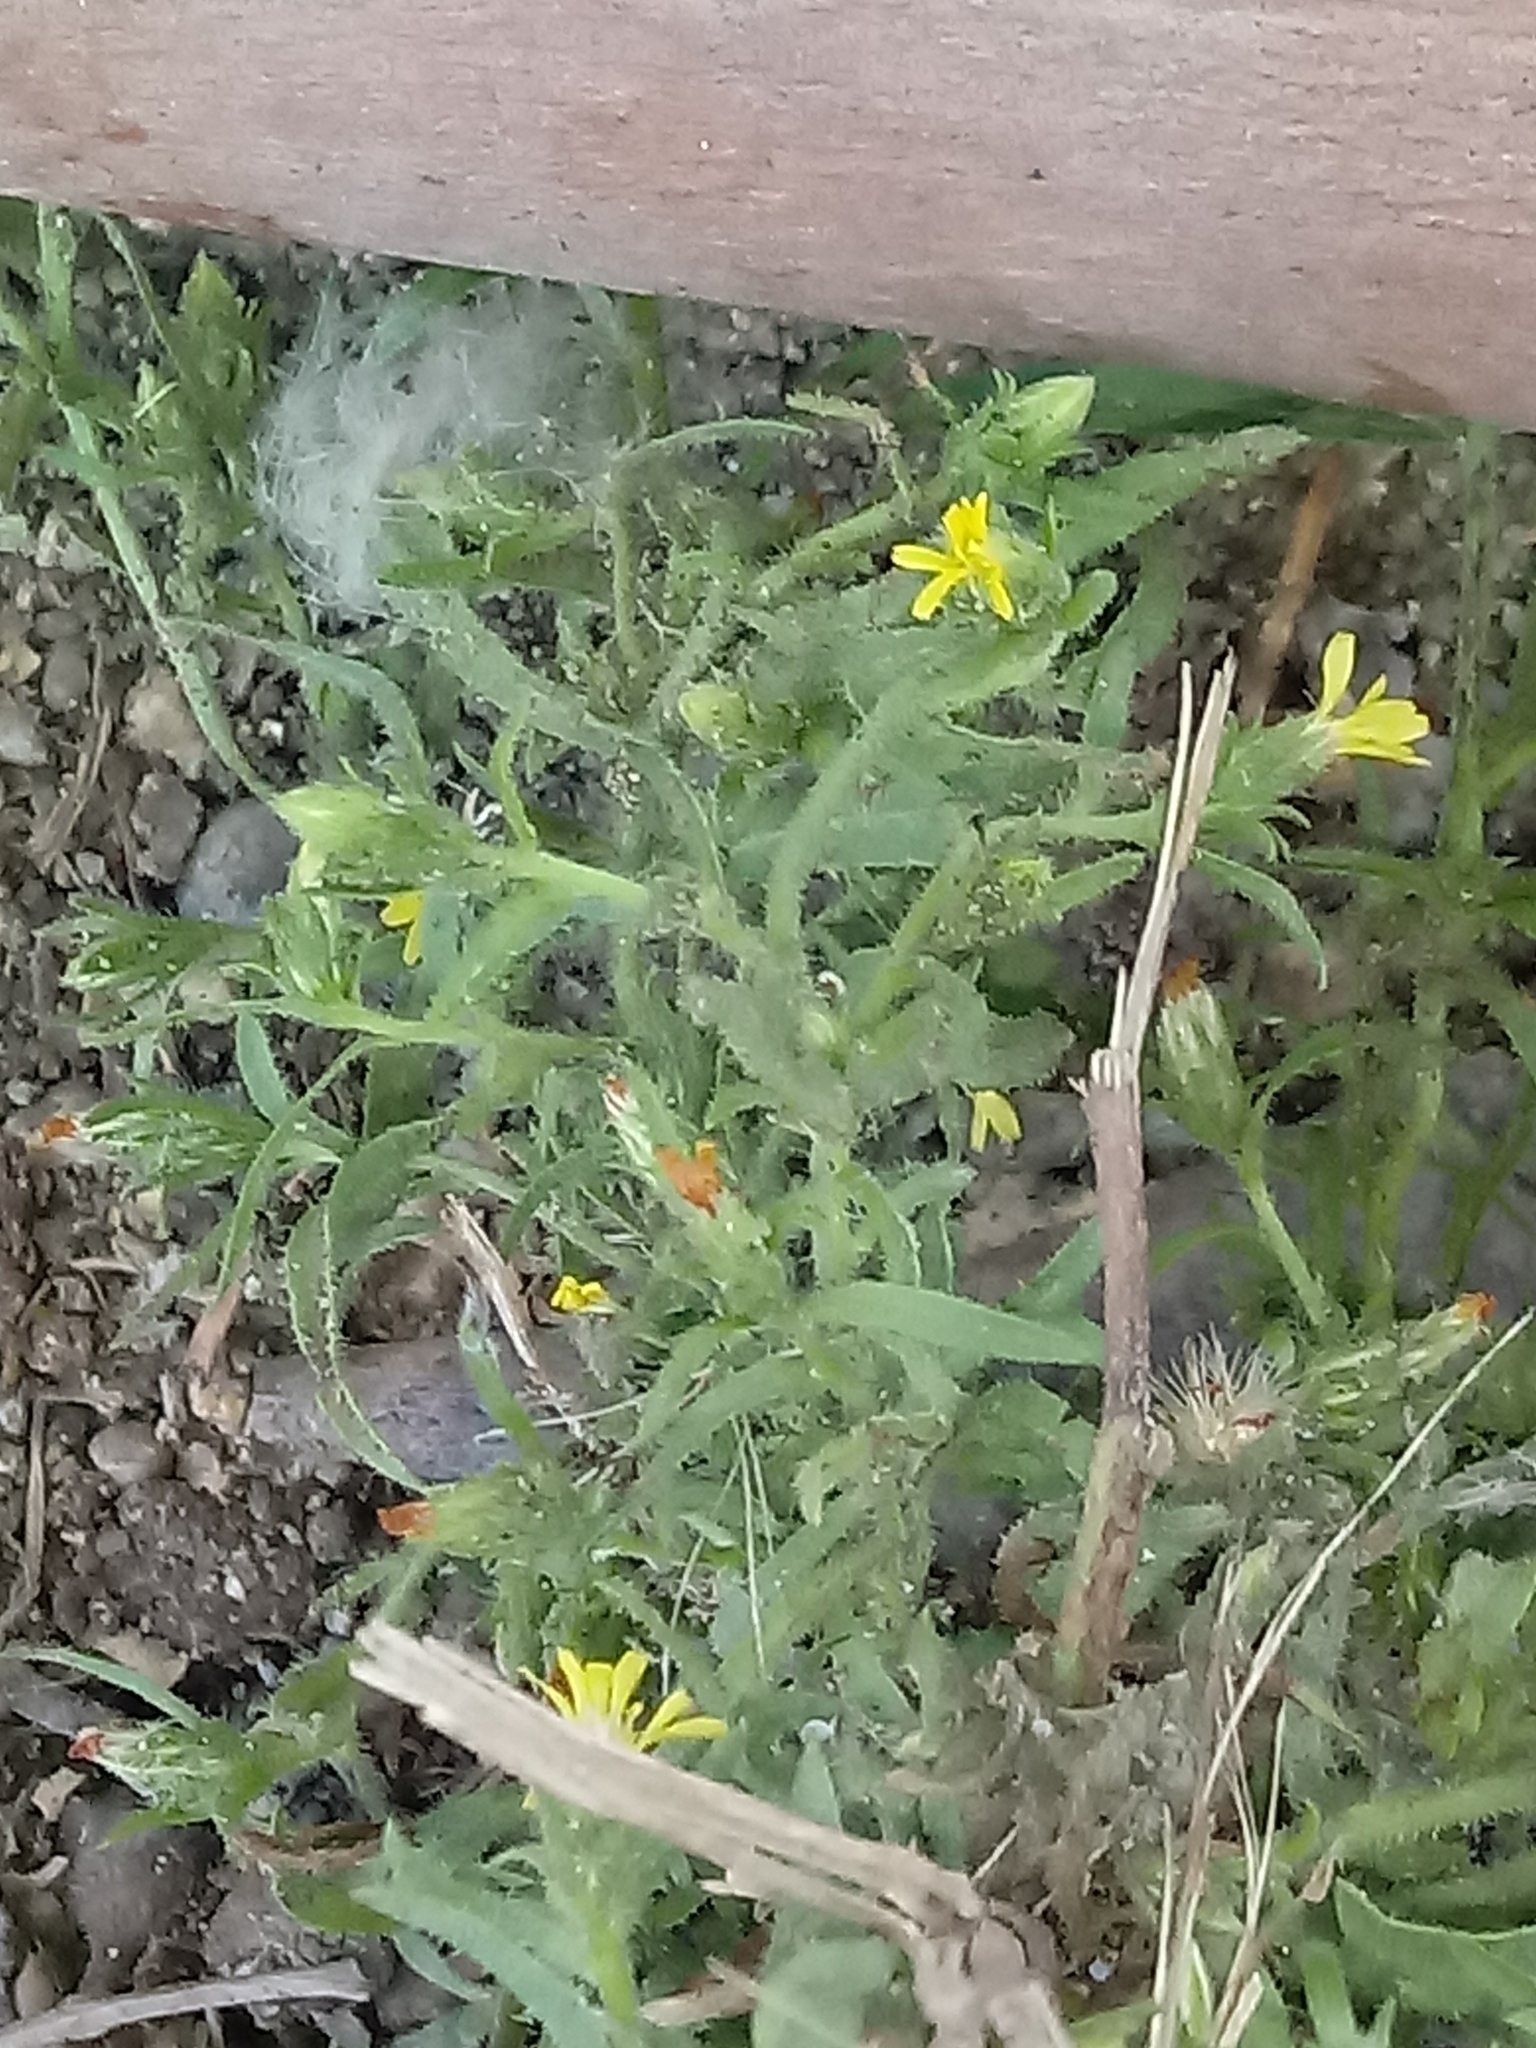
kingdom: Plantae
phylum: Tracheophyta
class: Magnoliopsida
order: Asterales
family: Asteraceae
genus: Dittrichia
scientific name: Dittrichia graveolens
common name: Stinking fleabane
